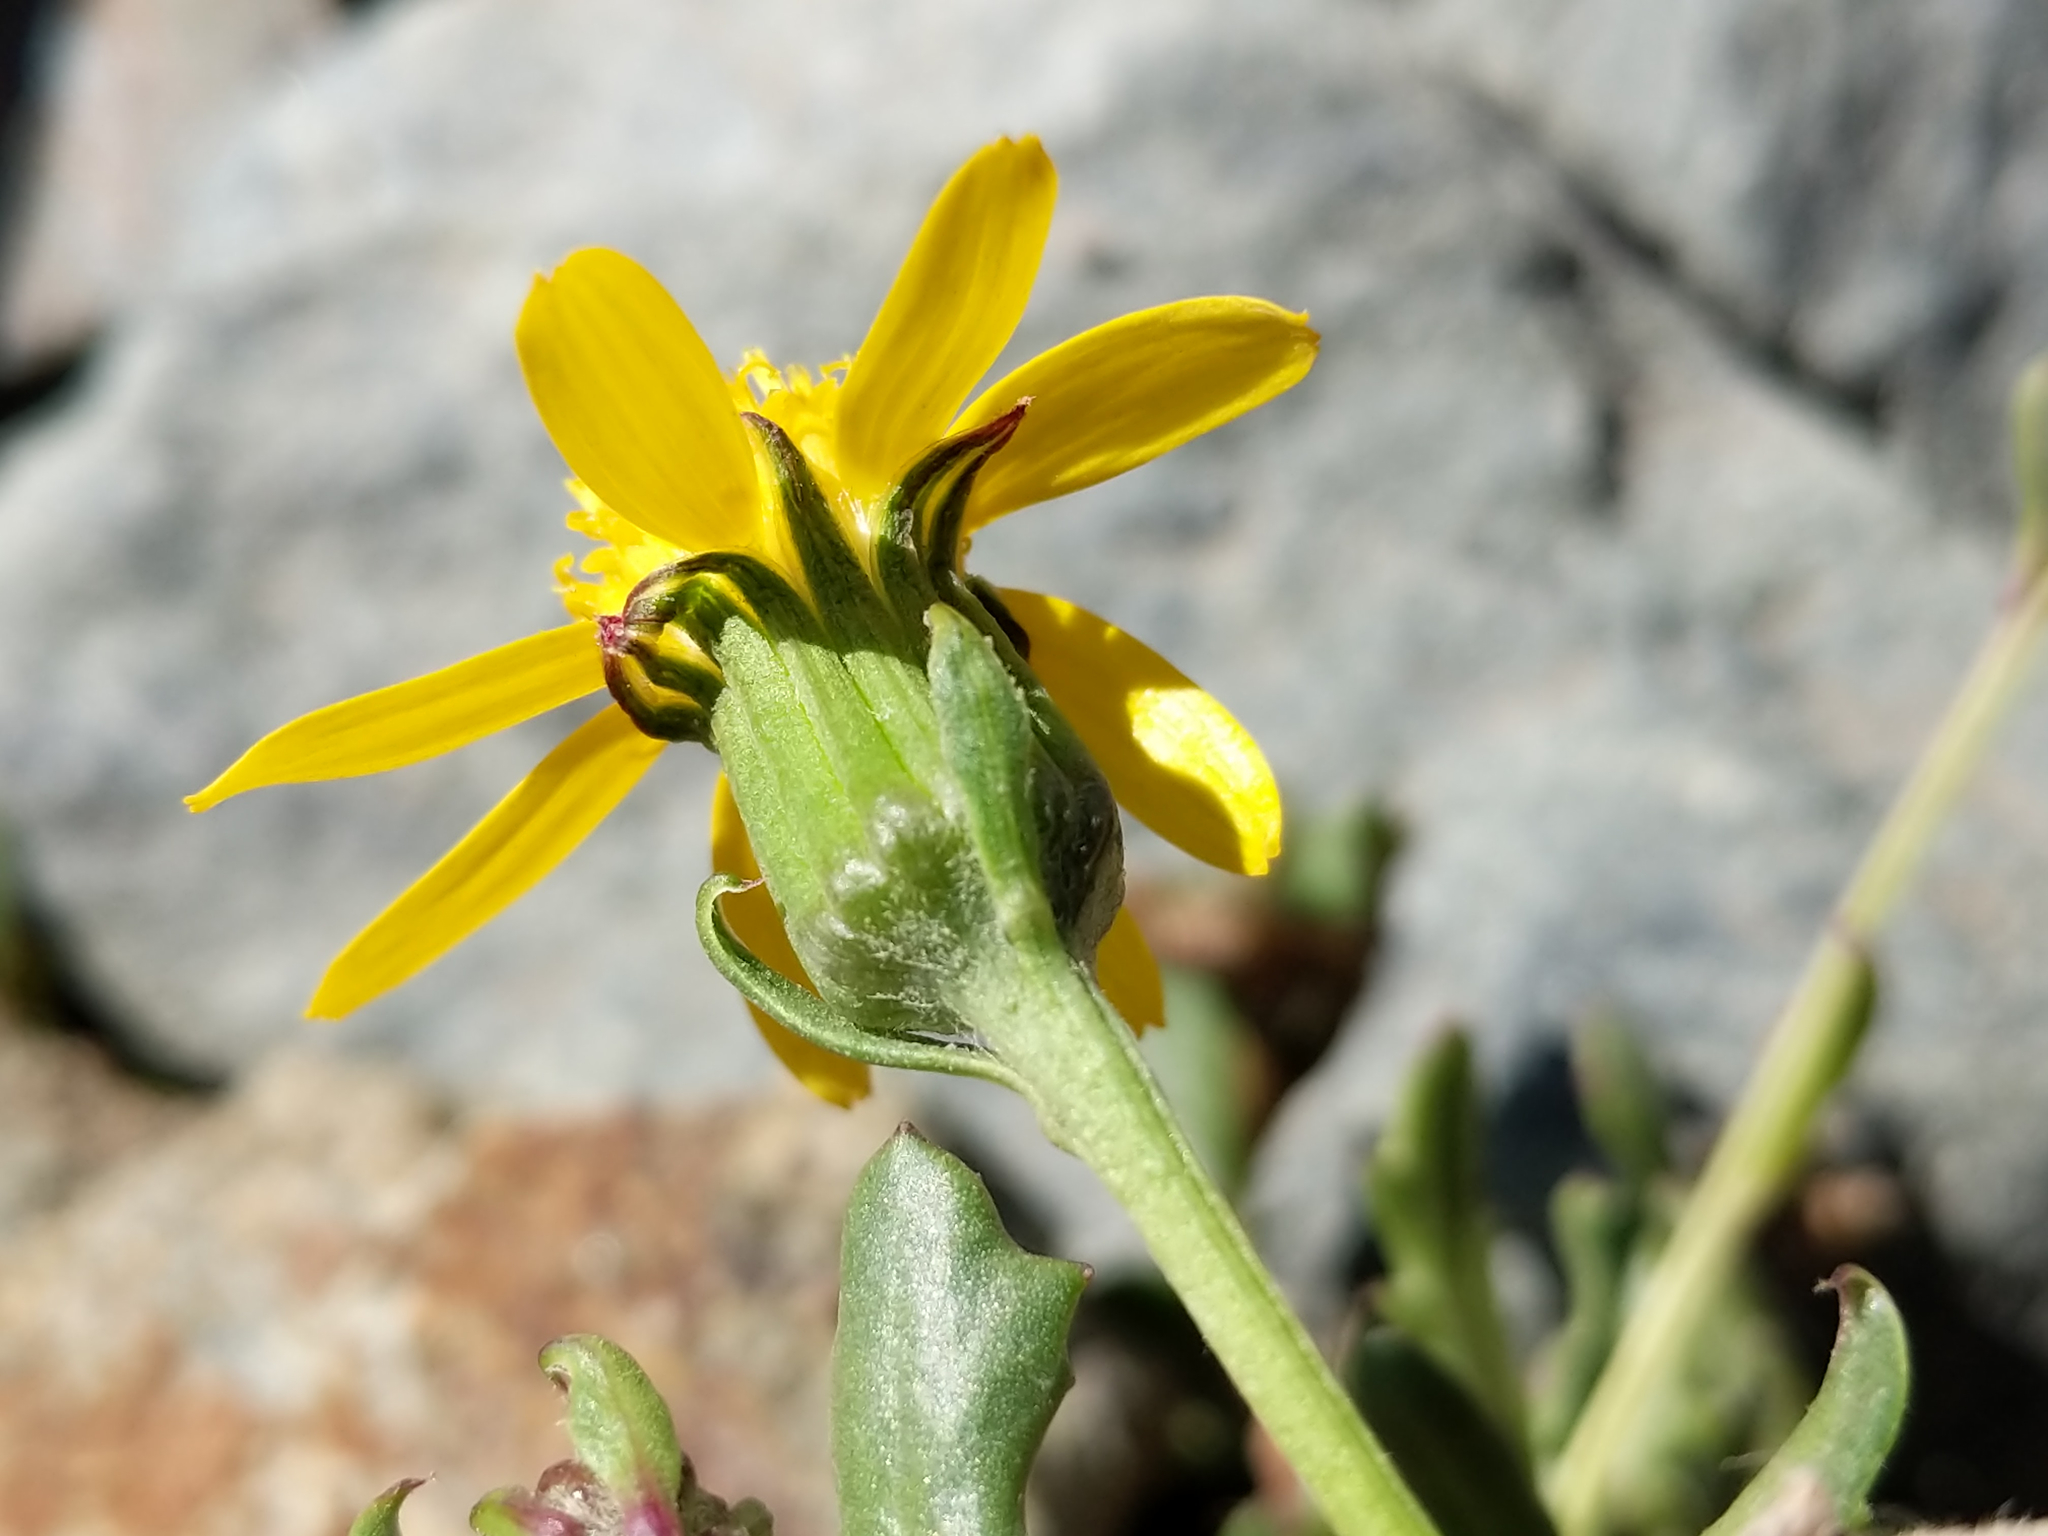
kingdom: Plantae
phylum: Tracheophyta
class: Magnoliopsida
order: Asterales
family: Asteraceae
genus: Senecio
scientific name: Senecio fremontii
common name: Fremont's groundsel
